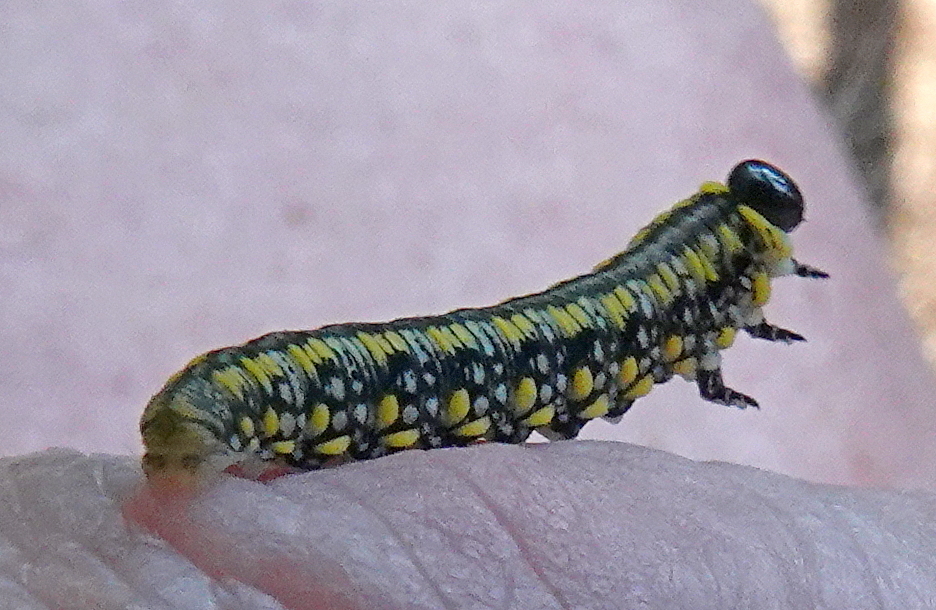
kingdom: Animalia
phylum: Arthropoda
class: Insecta
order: Hymenoptera
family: Diprionidae
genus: Diprion
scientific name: Diprion similis
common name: Pine sawfly
